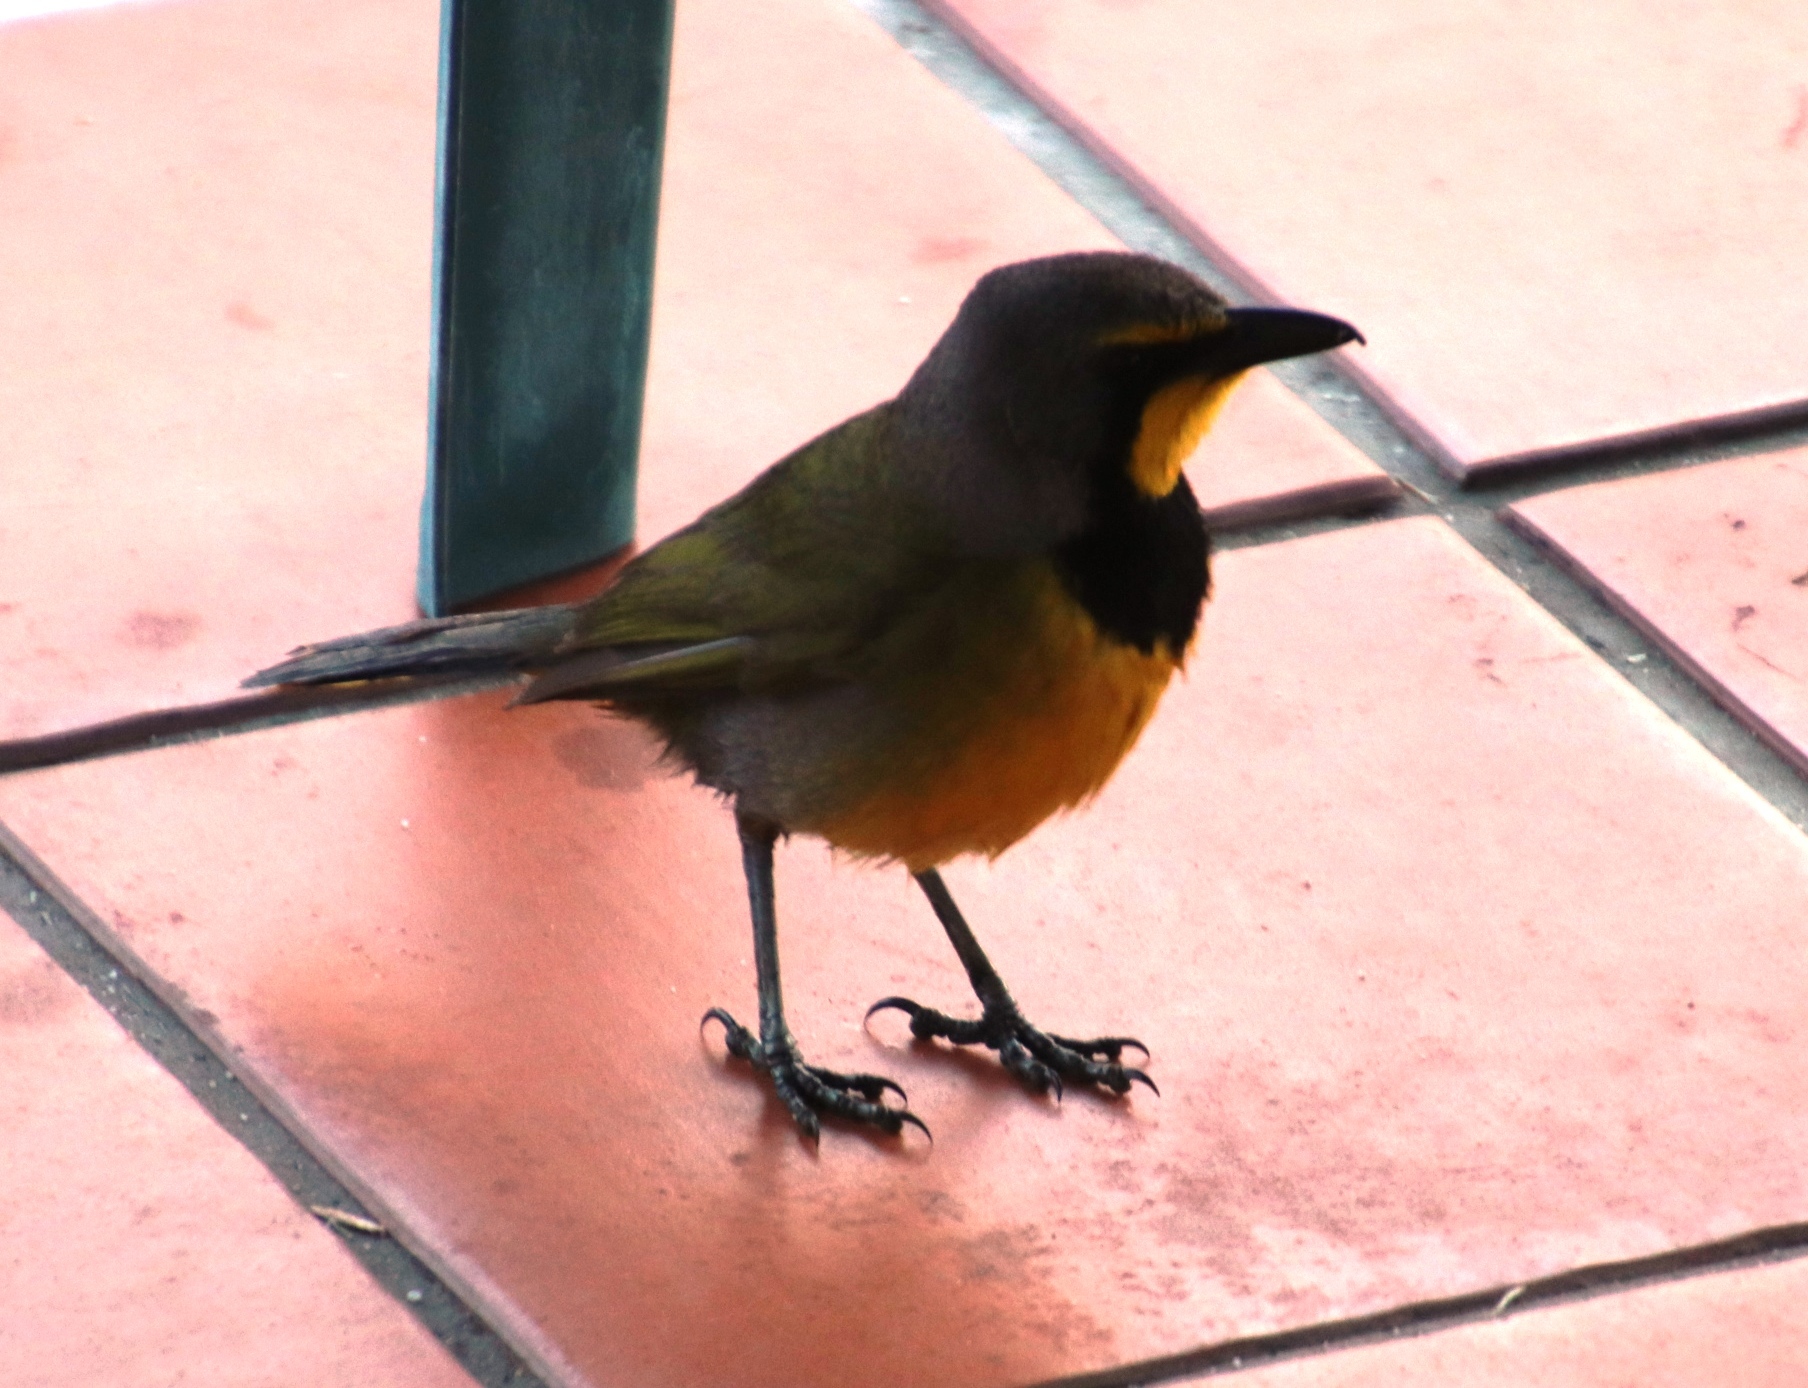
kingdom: Animalia
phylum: Chordata
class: Aves
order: Passeriformes
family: Malaconotidae
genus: Telophorus
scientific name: Telophorus zeylonus
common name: Bokmakierie
